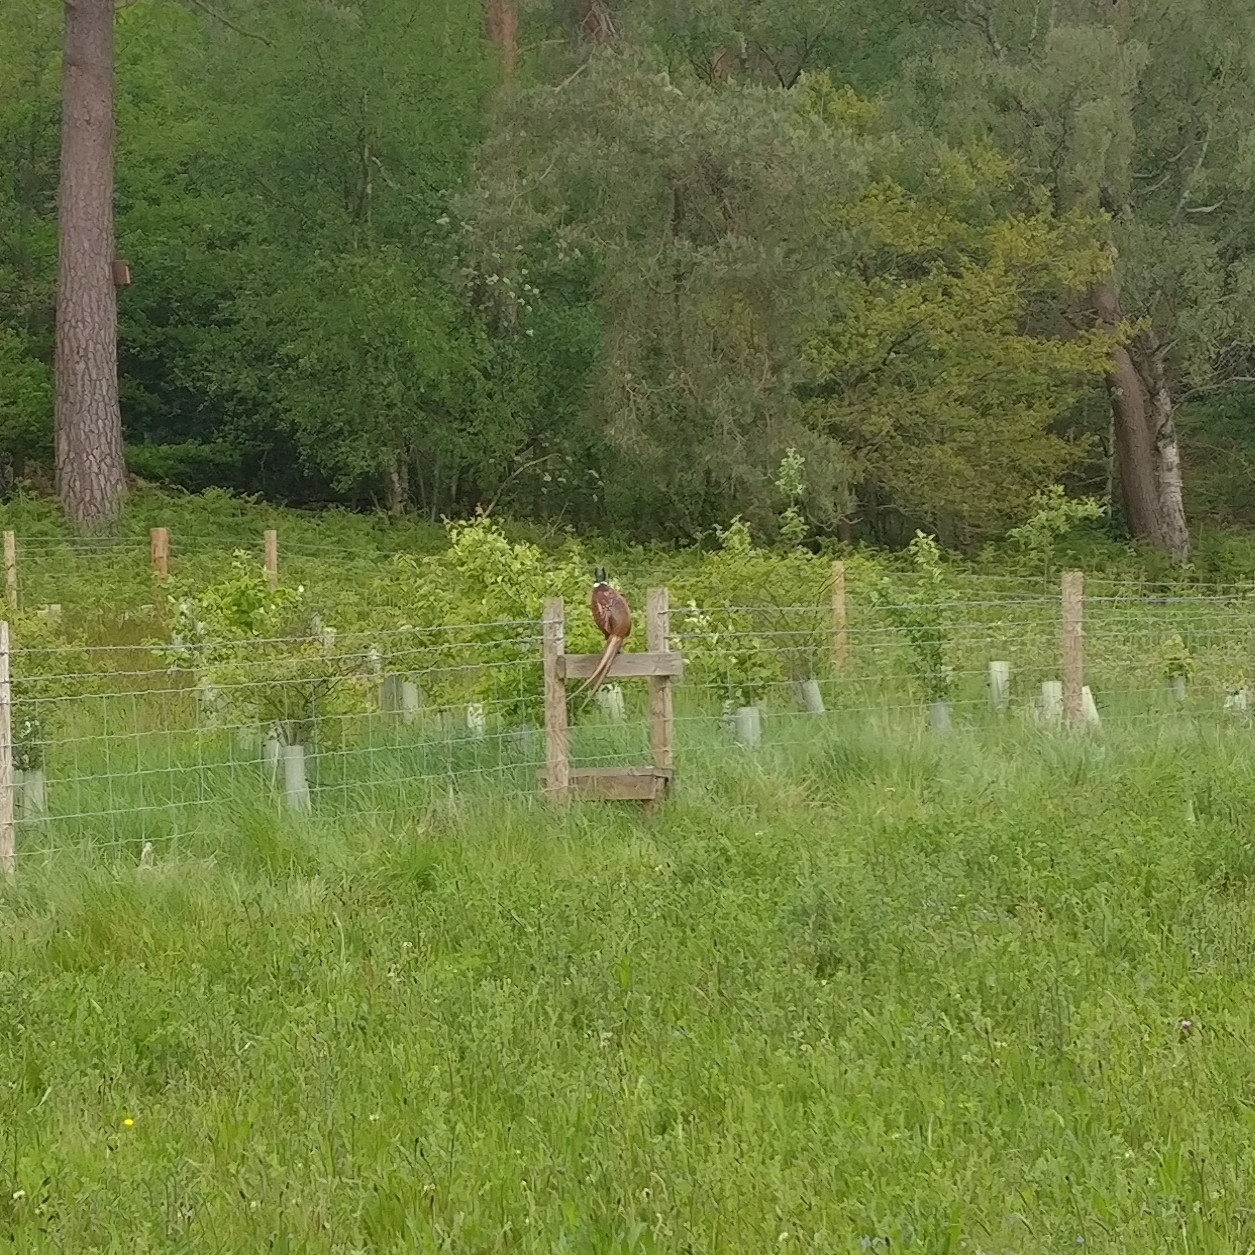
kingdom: Animalia
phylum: Chordata
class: Aves
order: Galliformes
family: Phasianidae
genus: Phasianus
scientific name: Phasianus colchicus
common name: Common pheasant
